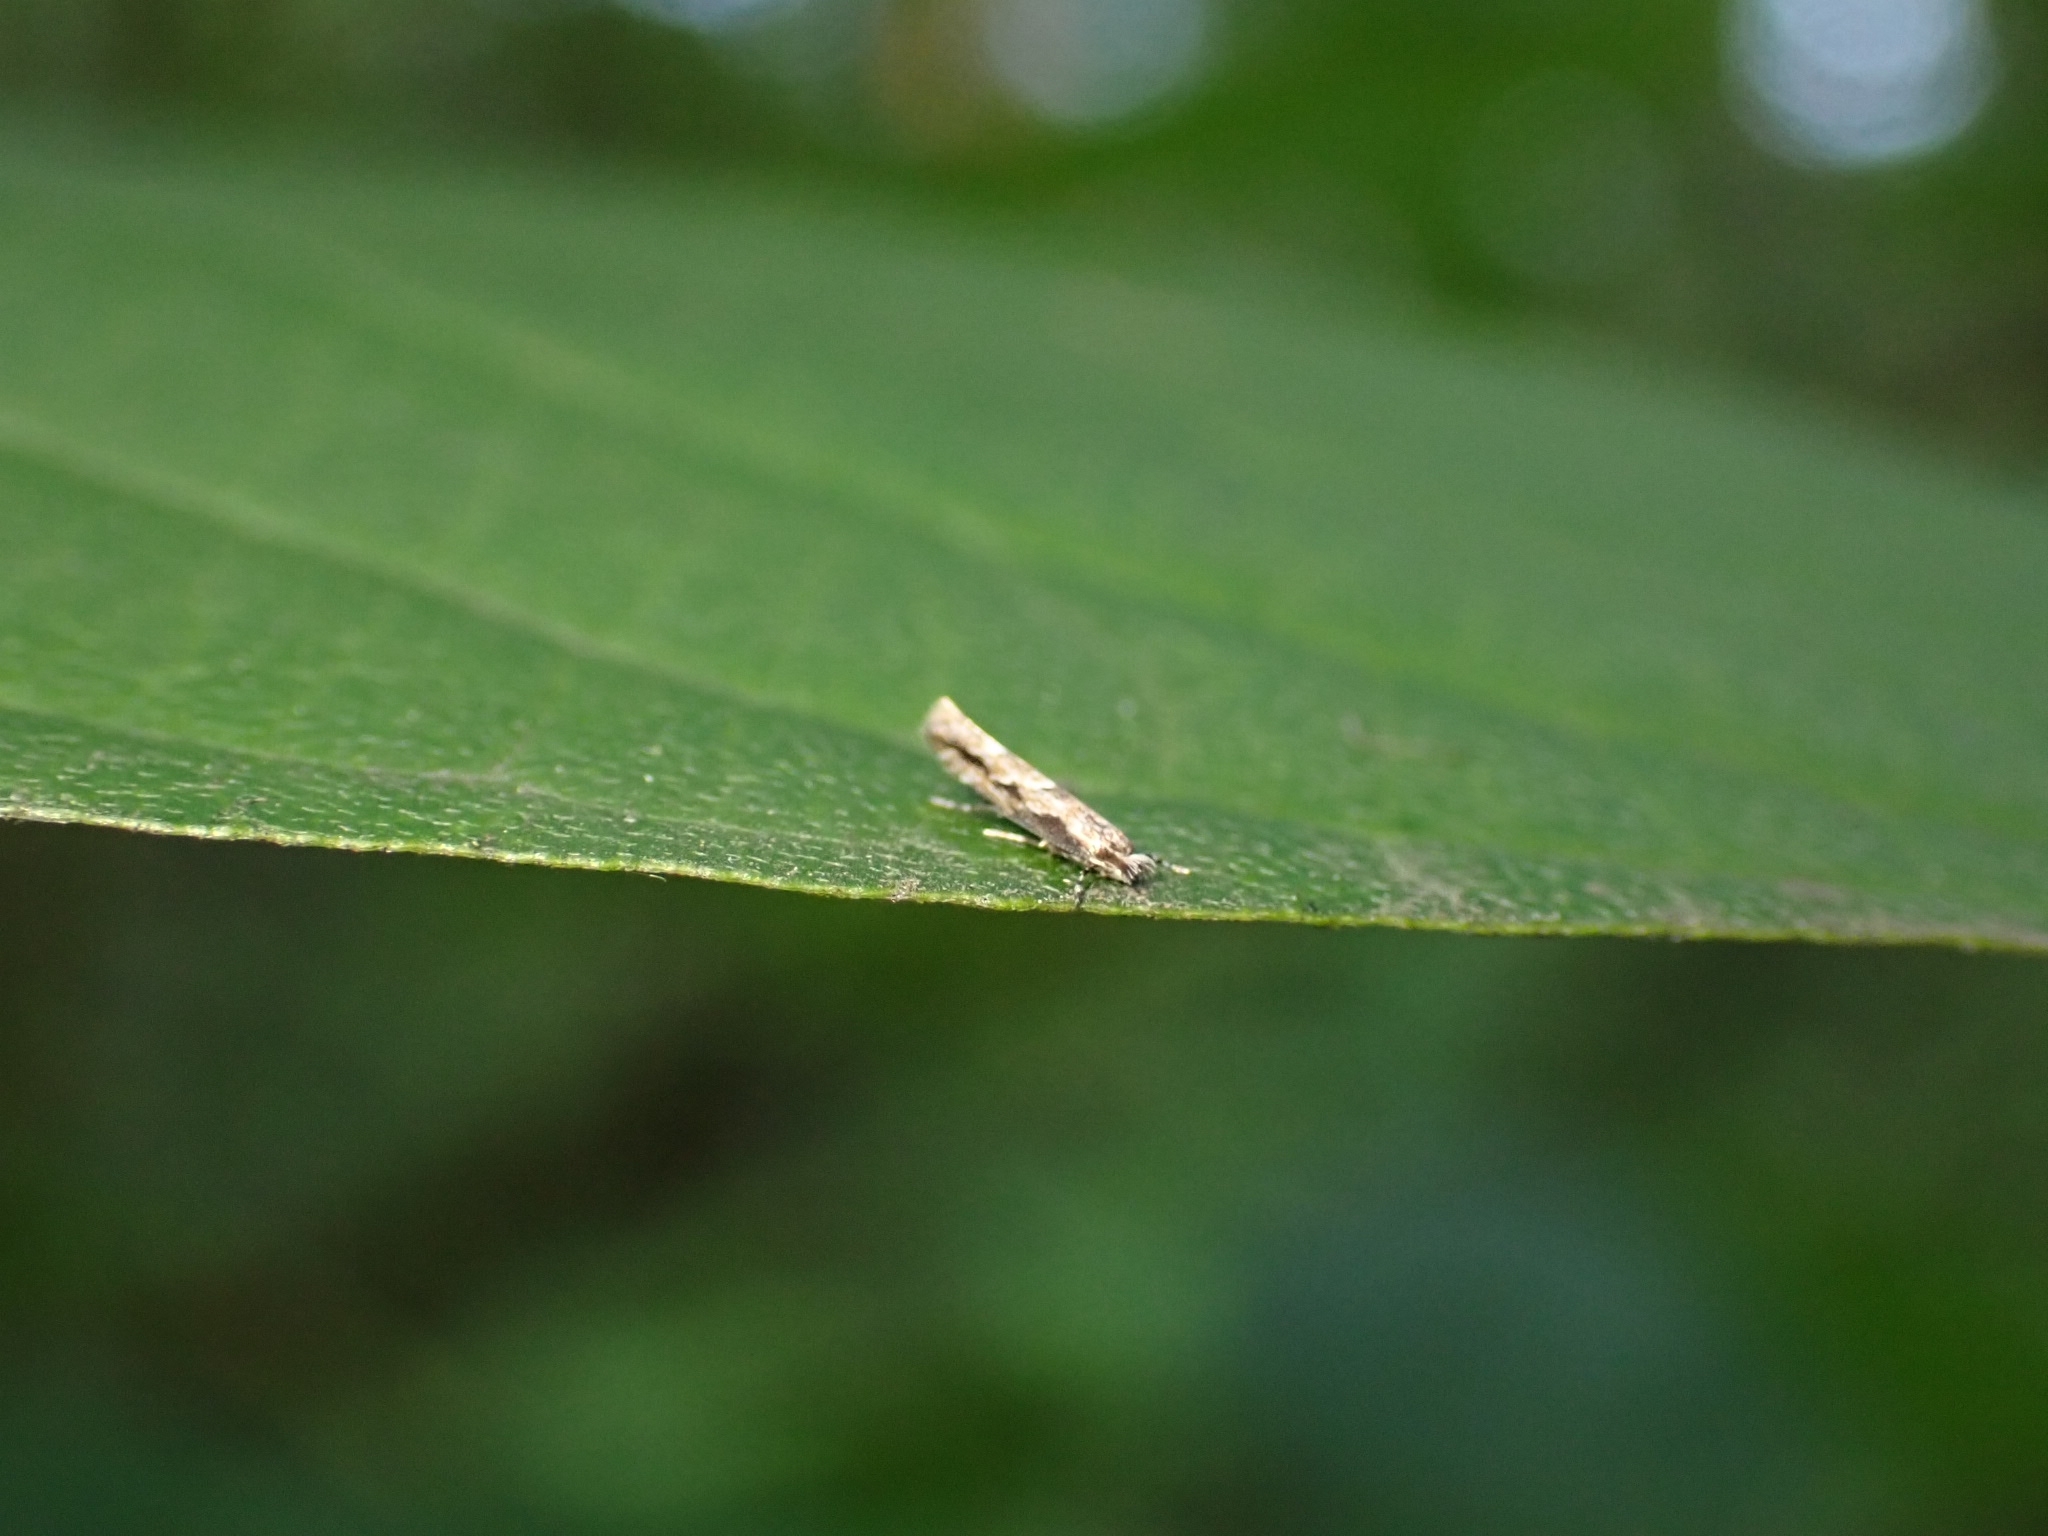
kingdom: Animalia
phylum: Arthropoda
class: Insecta
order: Lepidoptera
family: Gracillariidae
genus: Phyllonorycter
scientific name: Phyllonorycter issikii
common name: Linden midget
